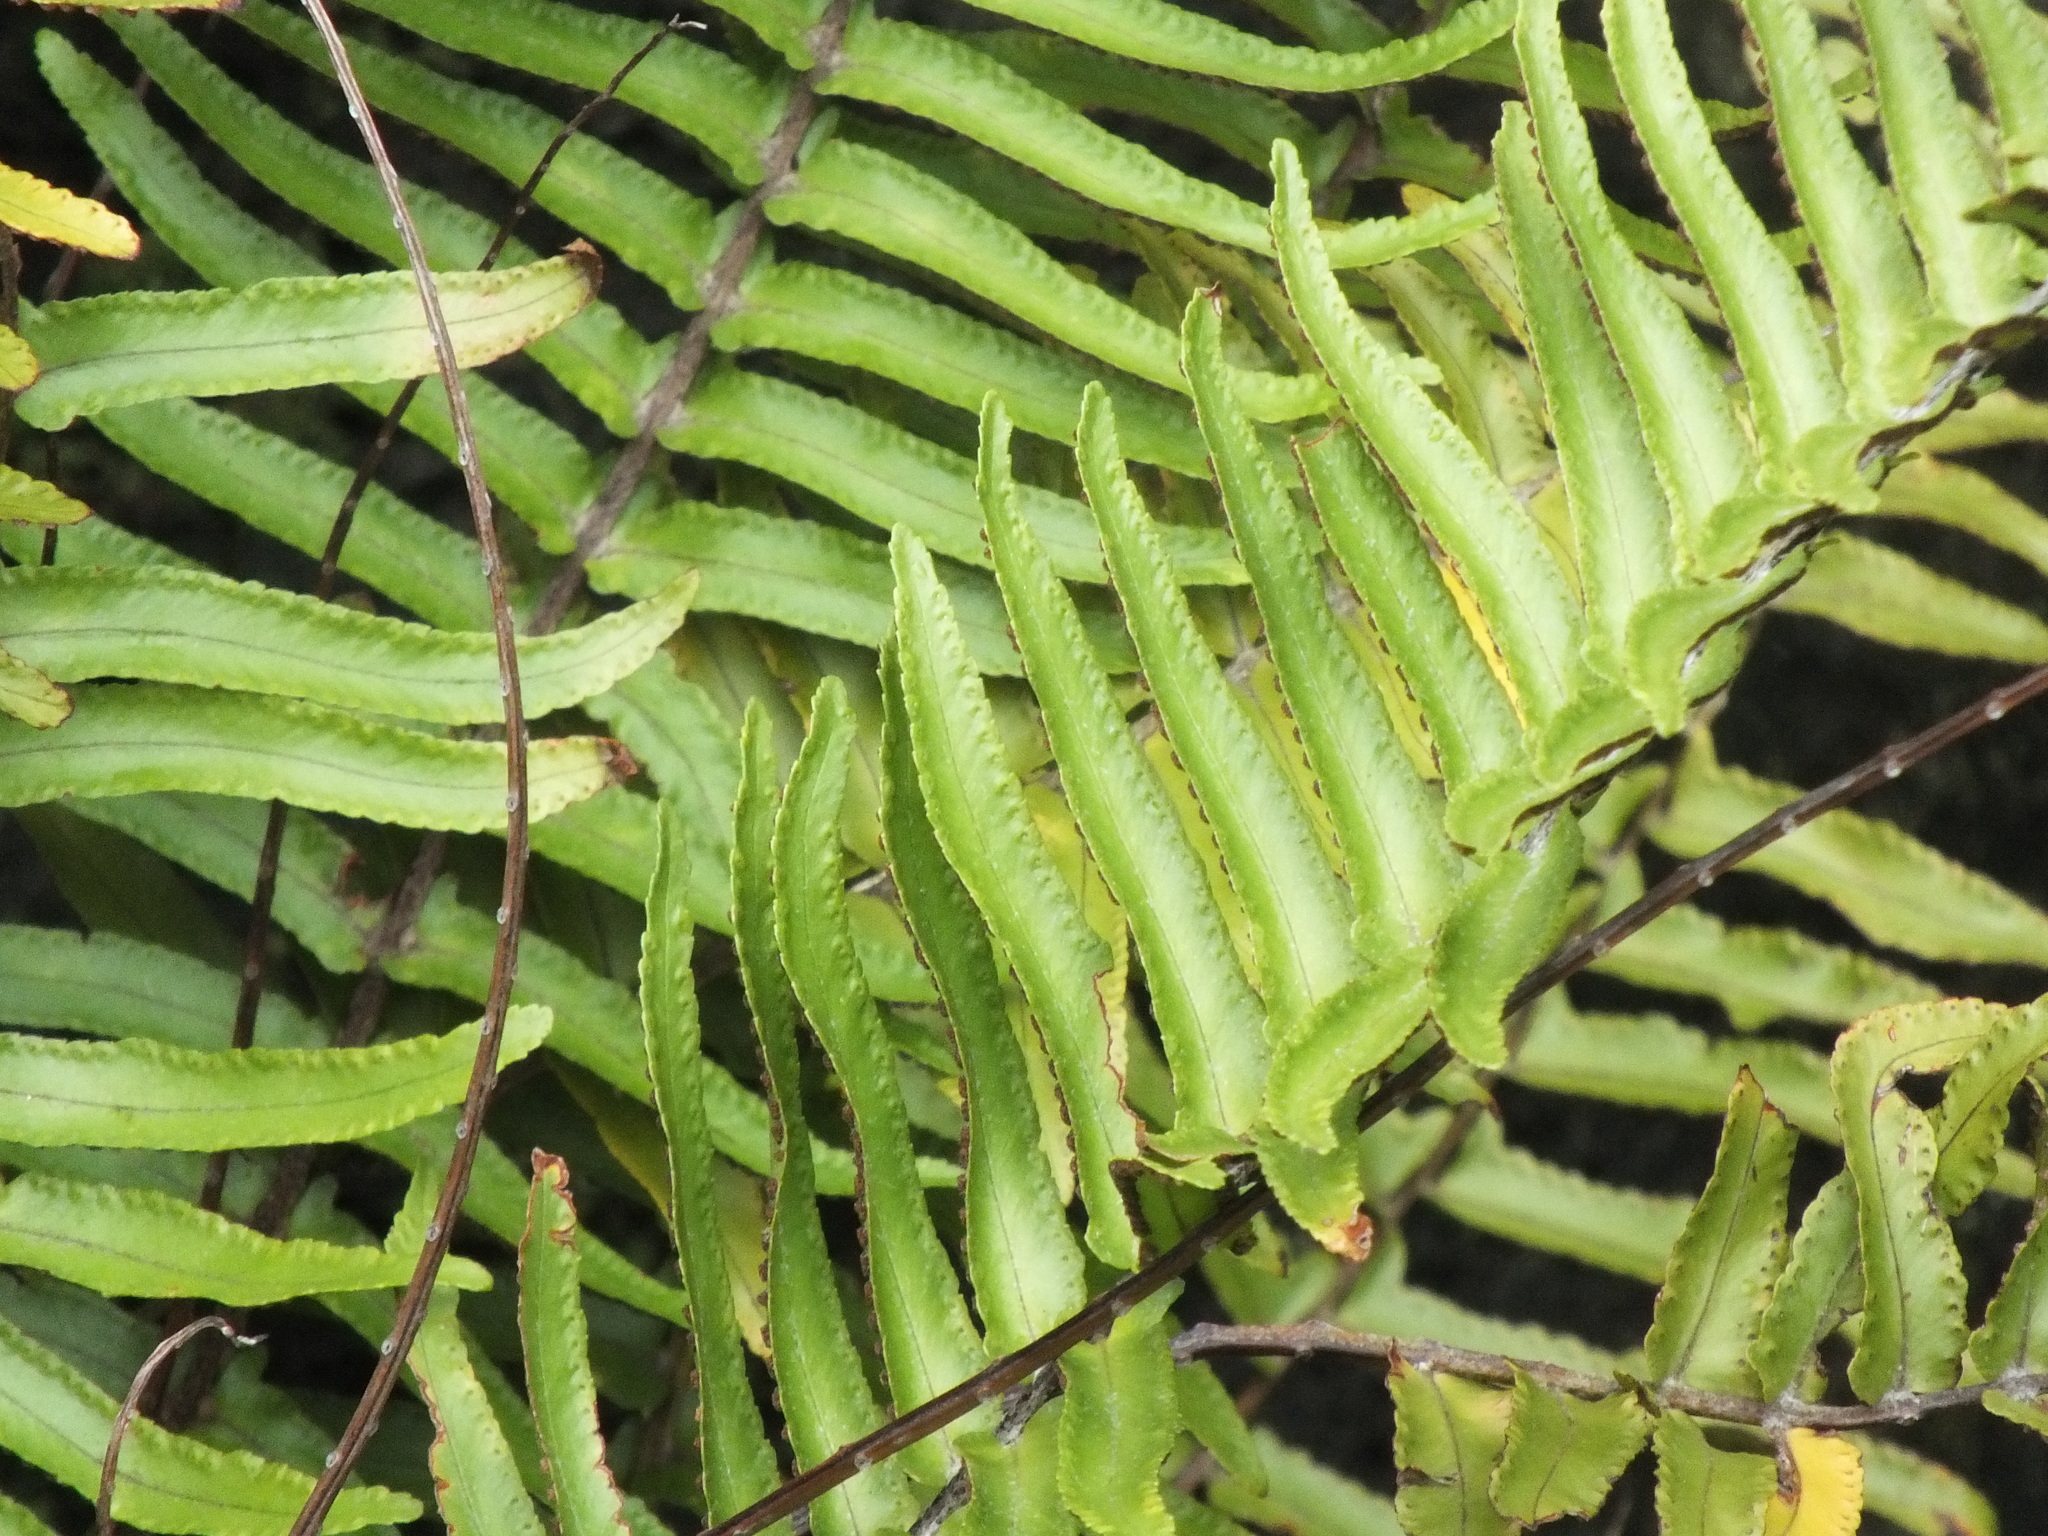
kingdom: Plantae
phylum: Tracheophyta
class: Polypodiopsida
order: Polypodiales
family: Nephrolepidaceae
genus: Nephrolepis
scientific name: Nephrolepis brownii
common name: Asian swordfern
